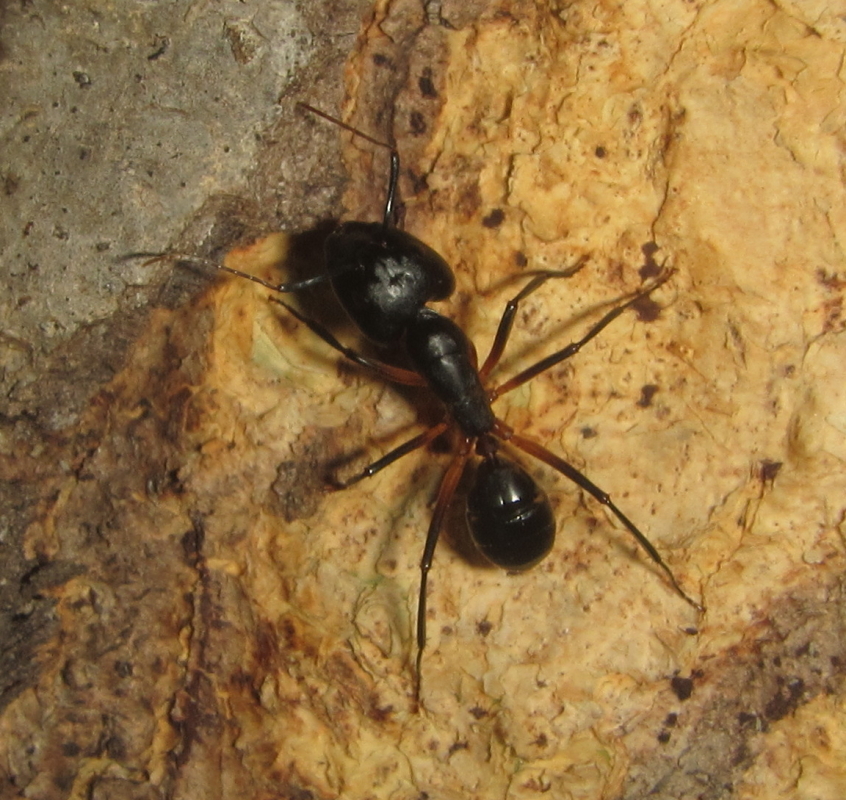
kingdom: Animalia
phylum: Arthropoda
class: Insecta
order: Hymenoptera
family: Formicidae
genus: Camponotus
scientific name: Camponotus sexpunctatus
